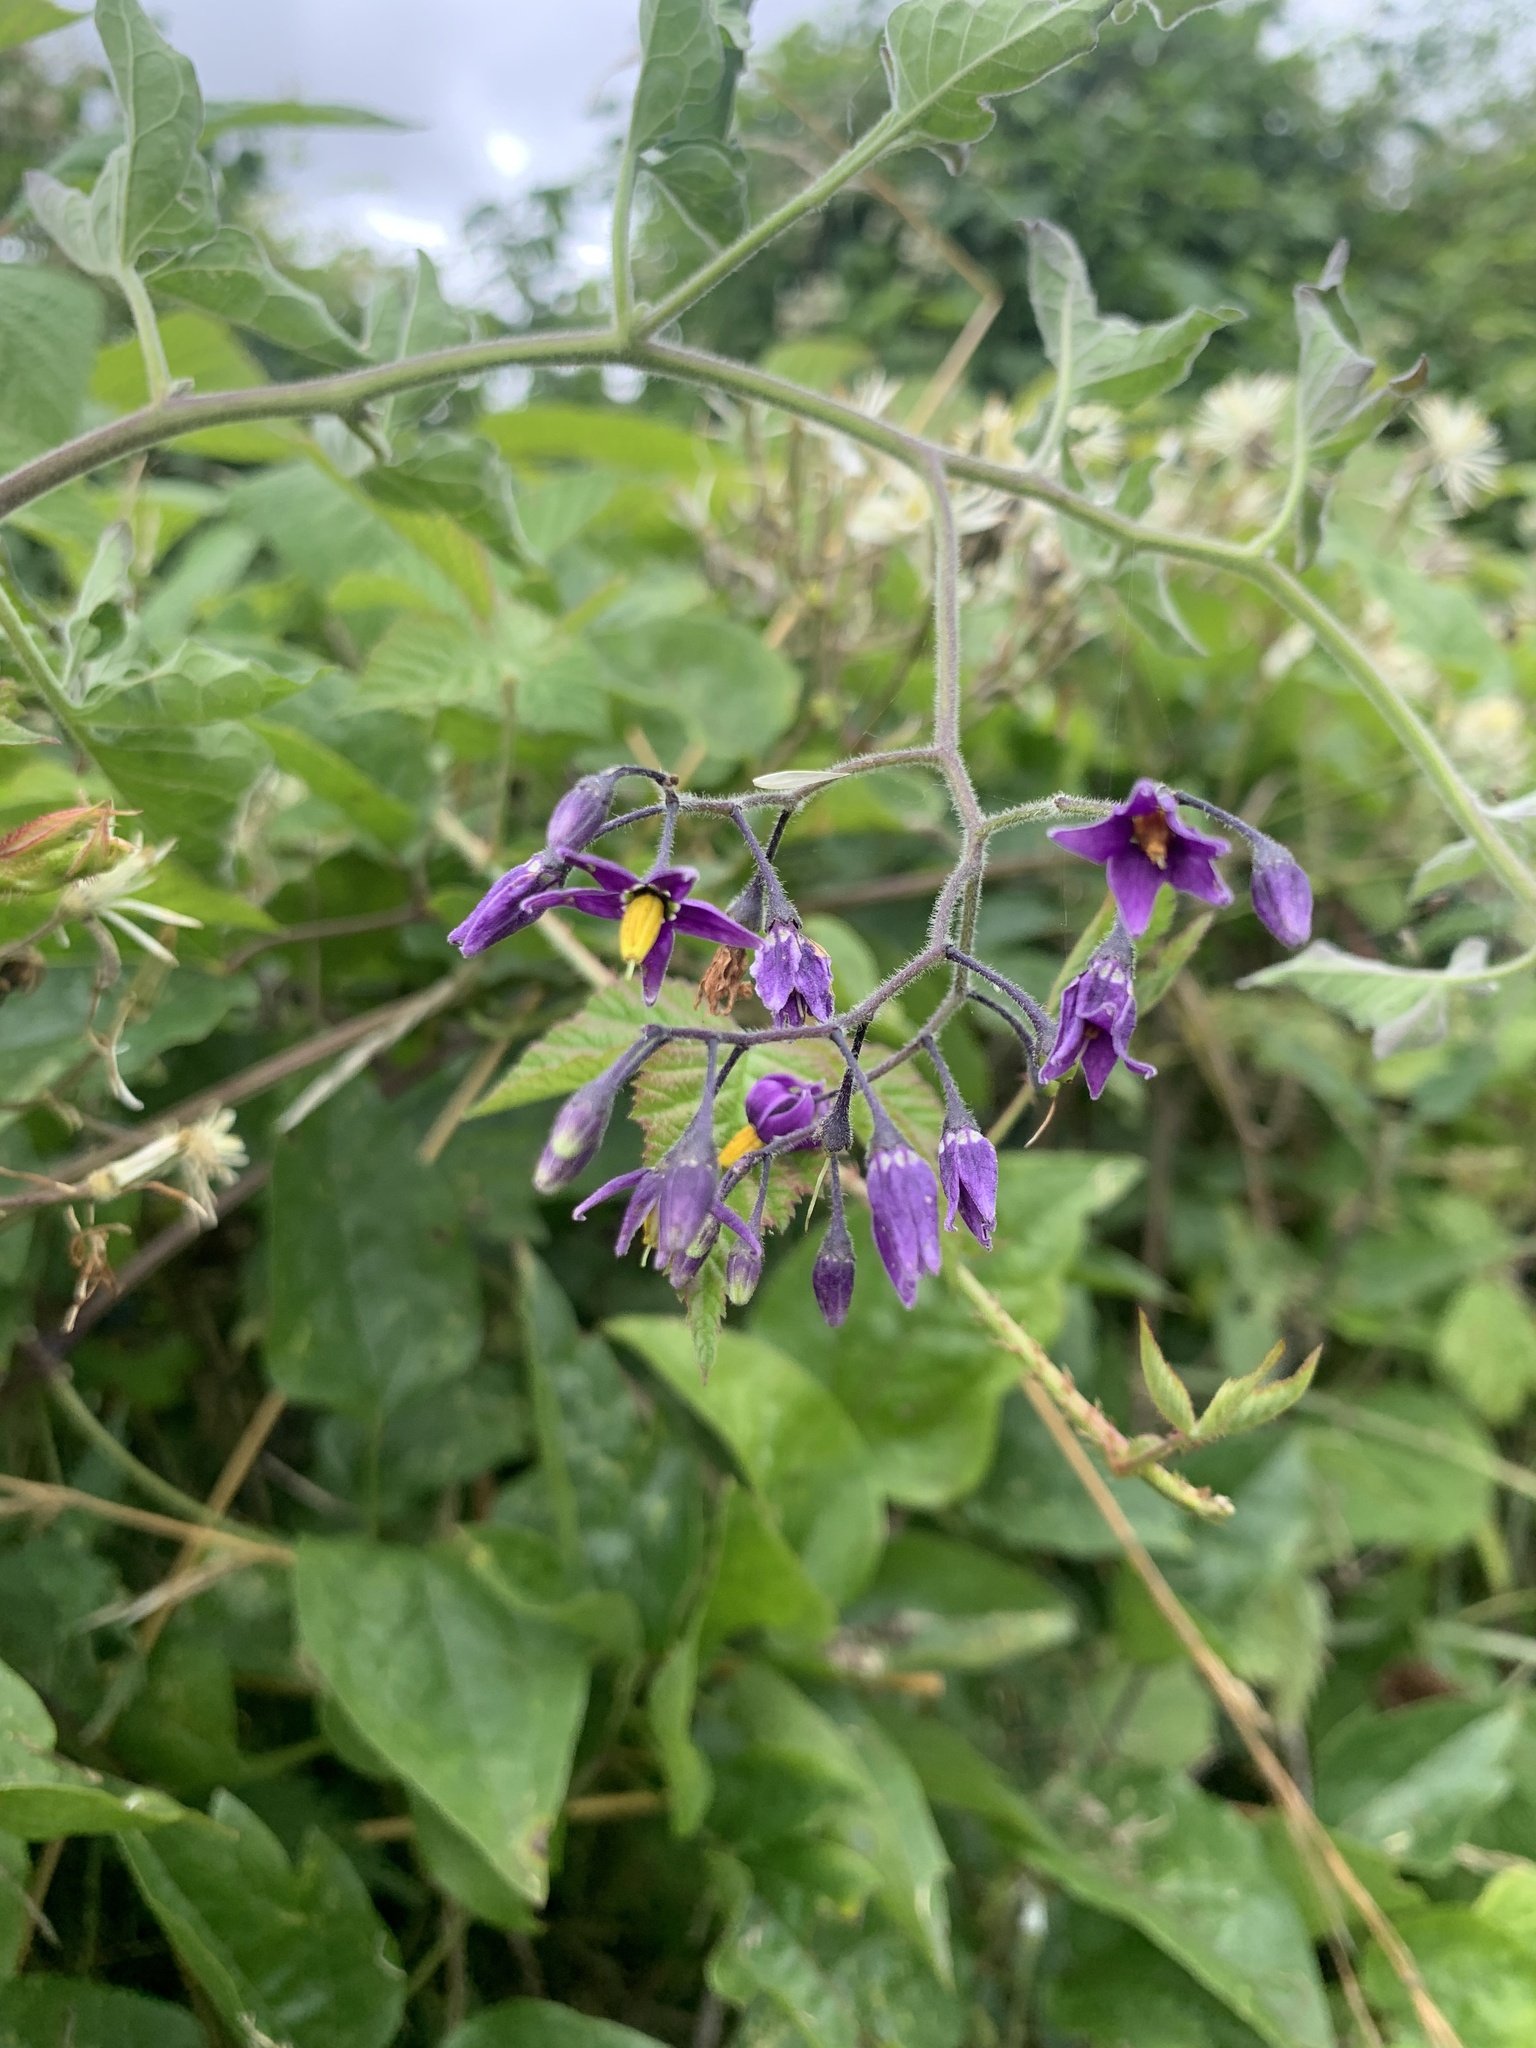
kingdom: Plantae
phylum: Tracheophyta
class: Magnoliopsida
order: Solanales
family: Solanaceae
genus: Solanum
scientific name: Solanum dulcamara
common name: Climbing nightshade
